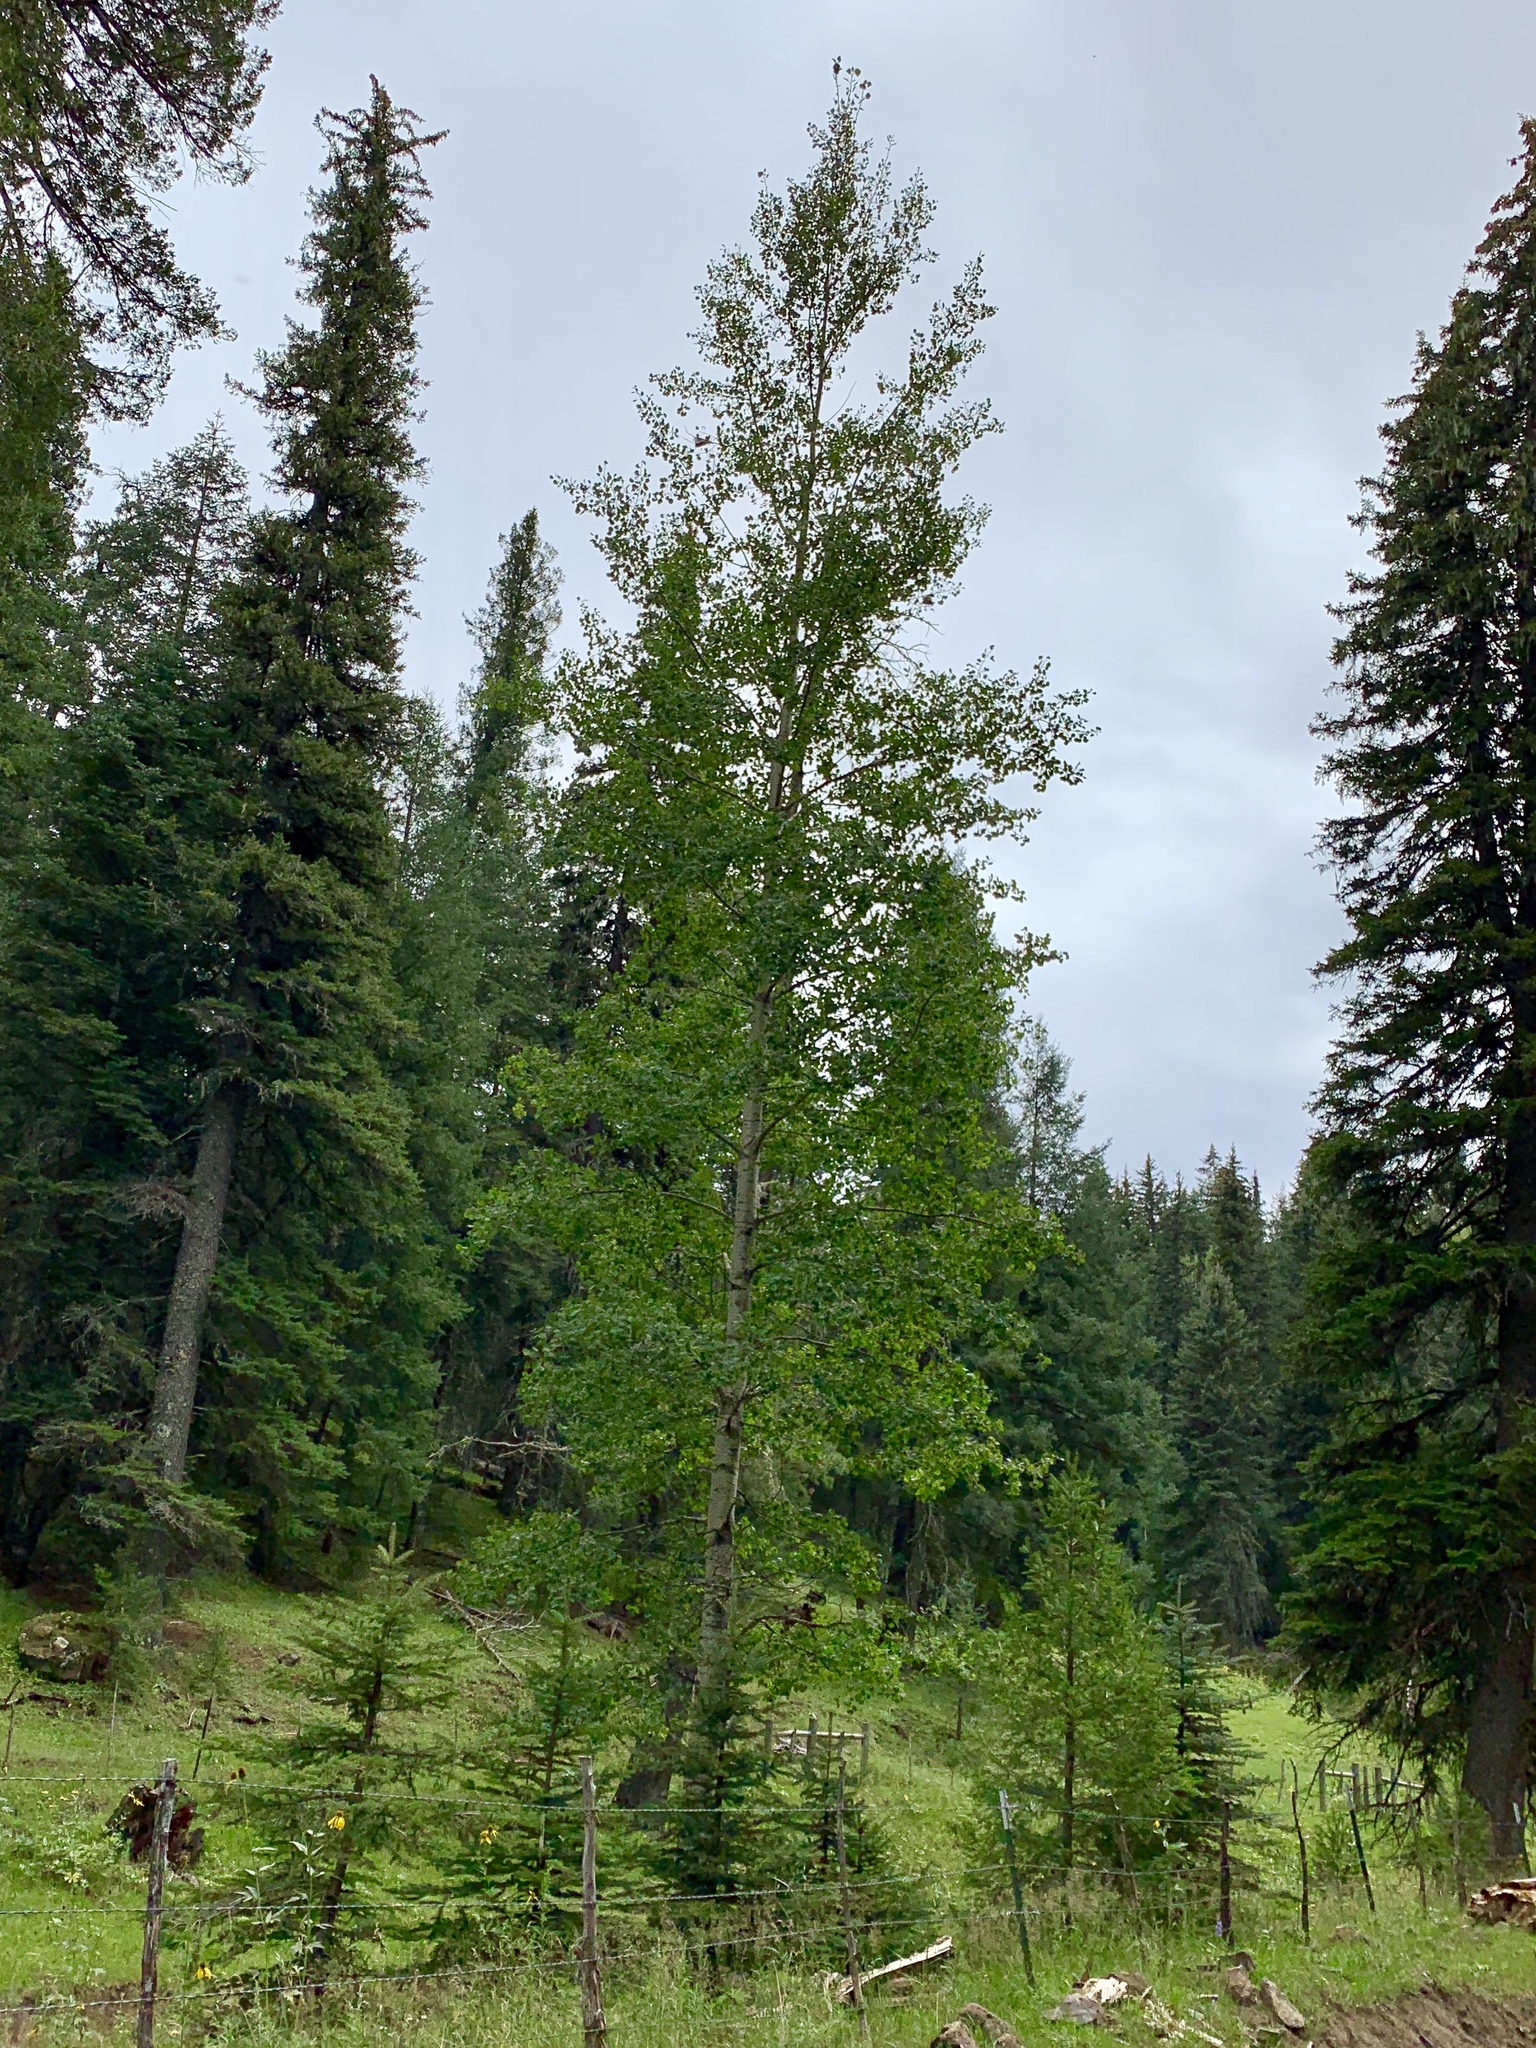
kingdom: Plantae
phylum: Tracheophyta
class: Magnoliopsida
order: Malpighiales
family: Salicaceae
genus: Populus
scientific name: Populus tremuloides
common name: Quaking aspen
